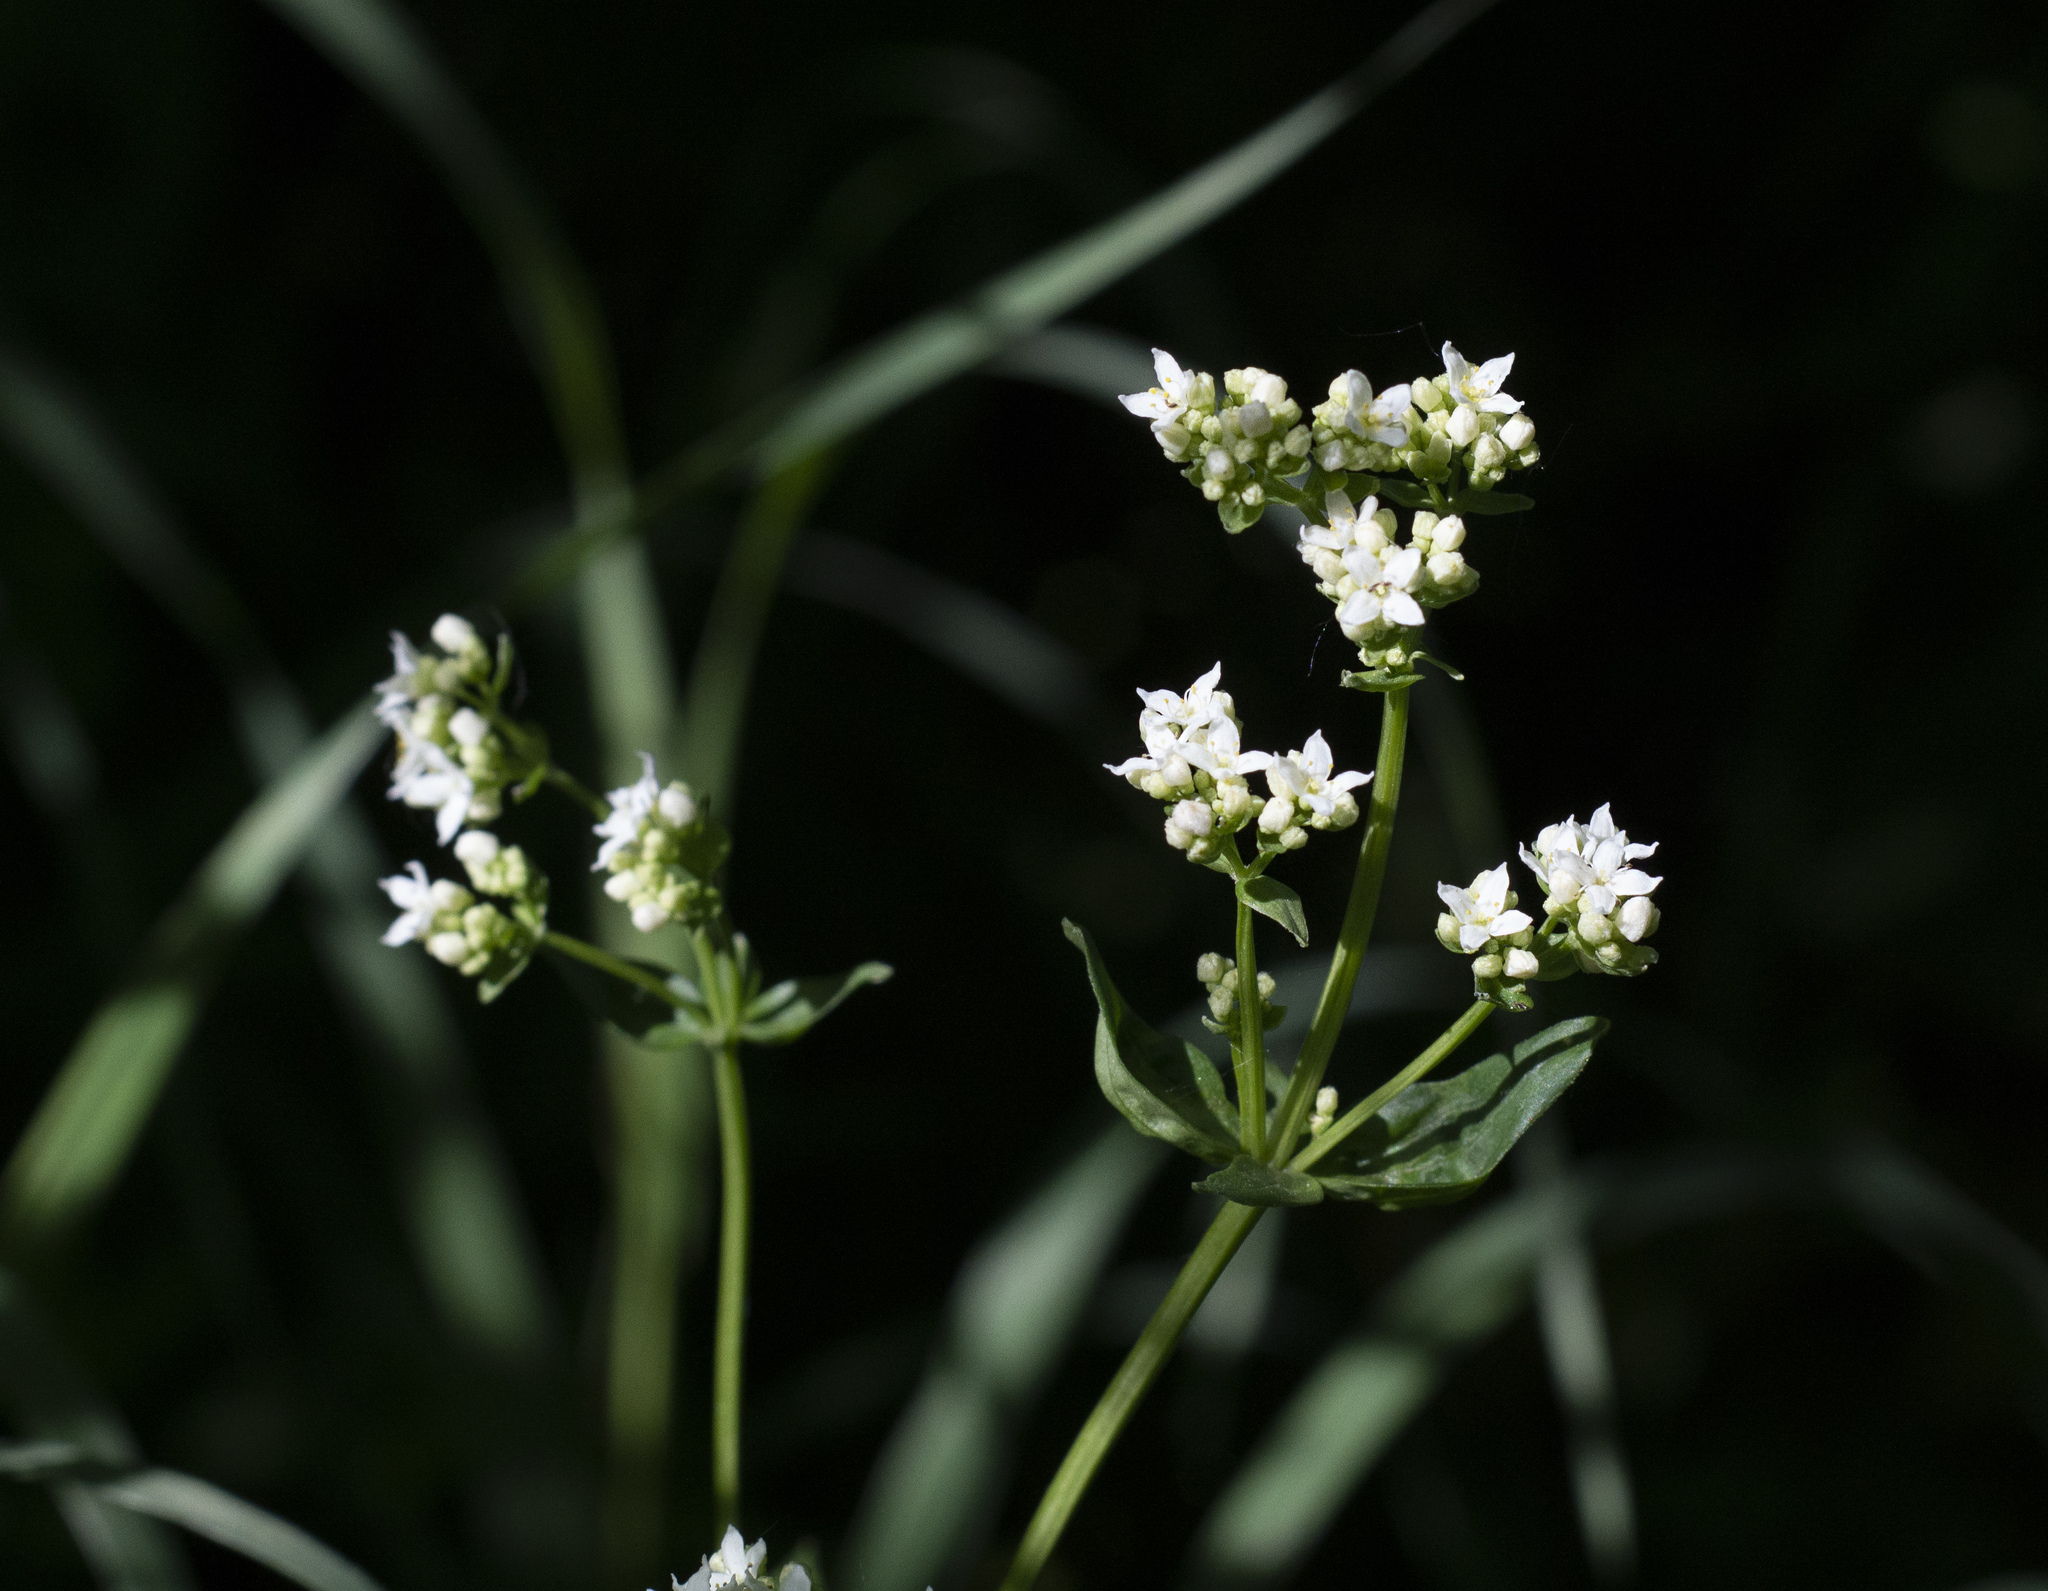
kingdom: Plantae
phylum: Tracheophyta
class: Magnoliopsida
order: Gentianales
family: Rubiaceae
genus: Galium
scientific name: Galium rubioides
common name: European bedstraw
